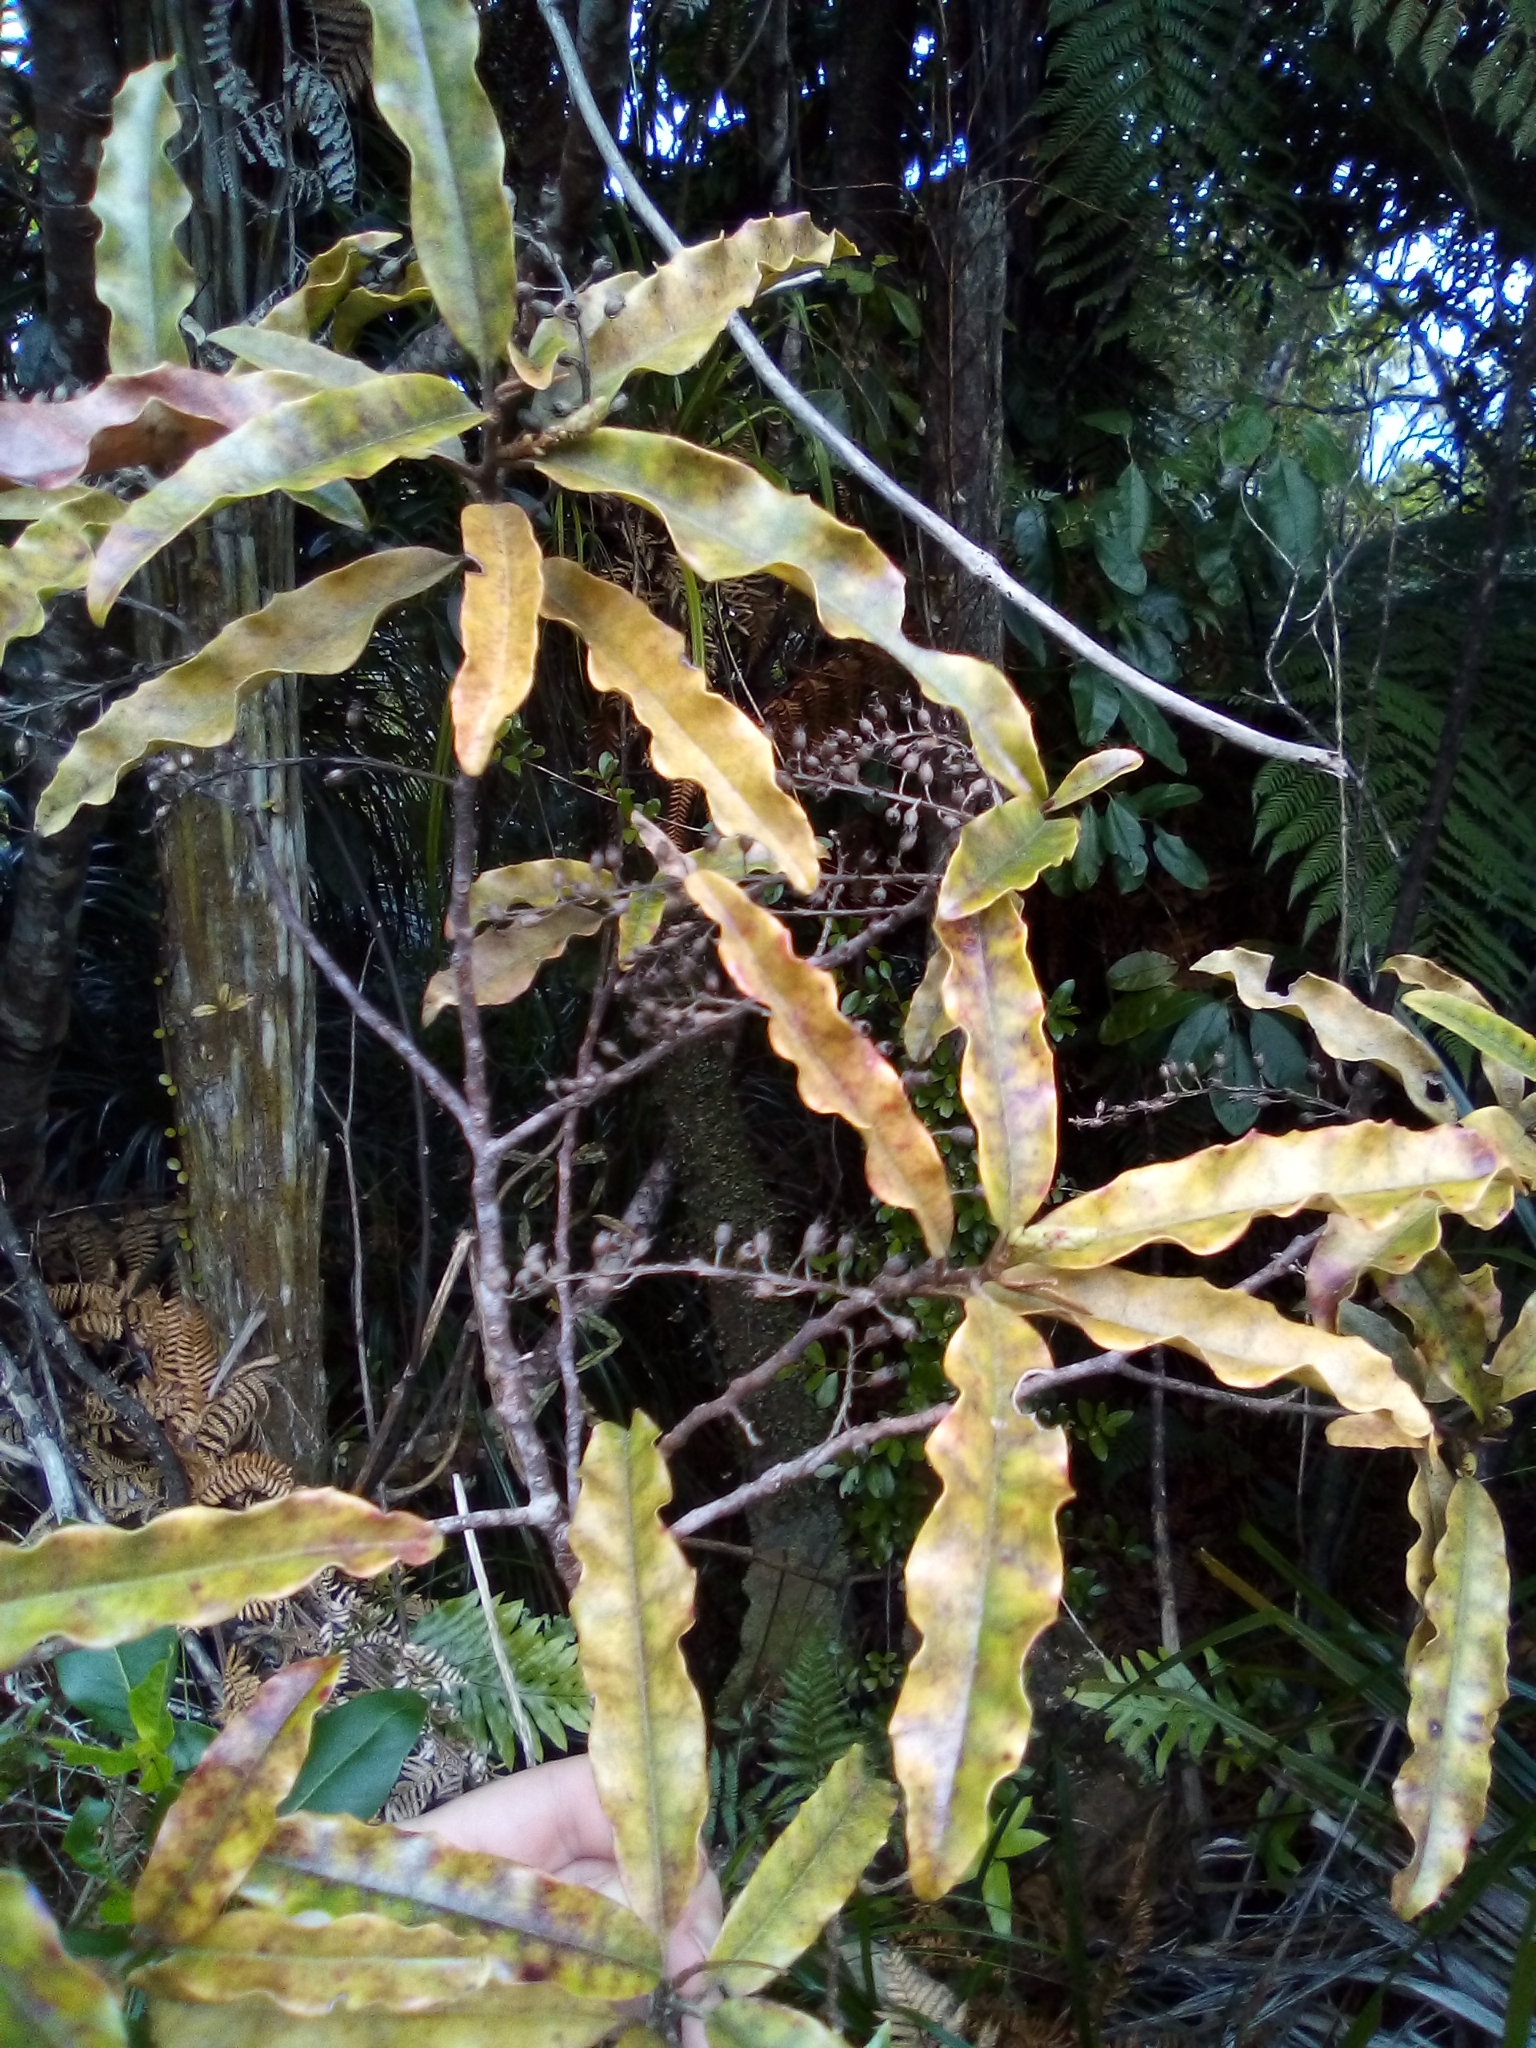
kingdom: Plantae
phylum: Tracheophyta
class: Magnoliopsida
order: Paracryphiales
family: Paracryphiaceae
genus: Quintinia
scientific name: Quintinia serrata
